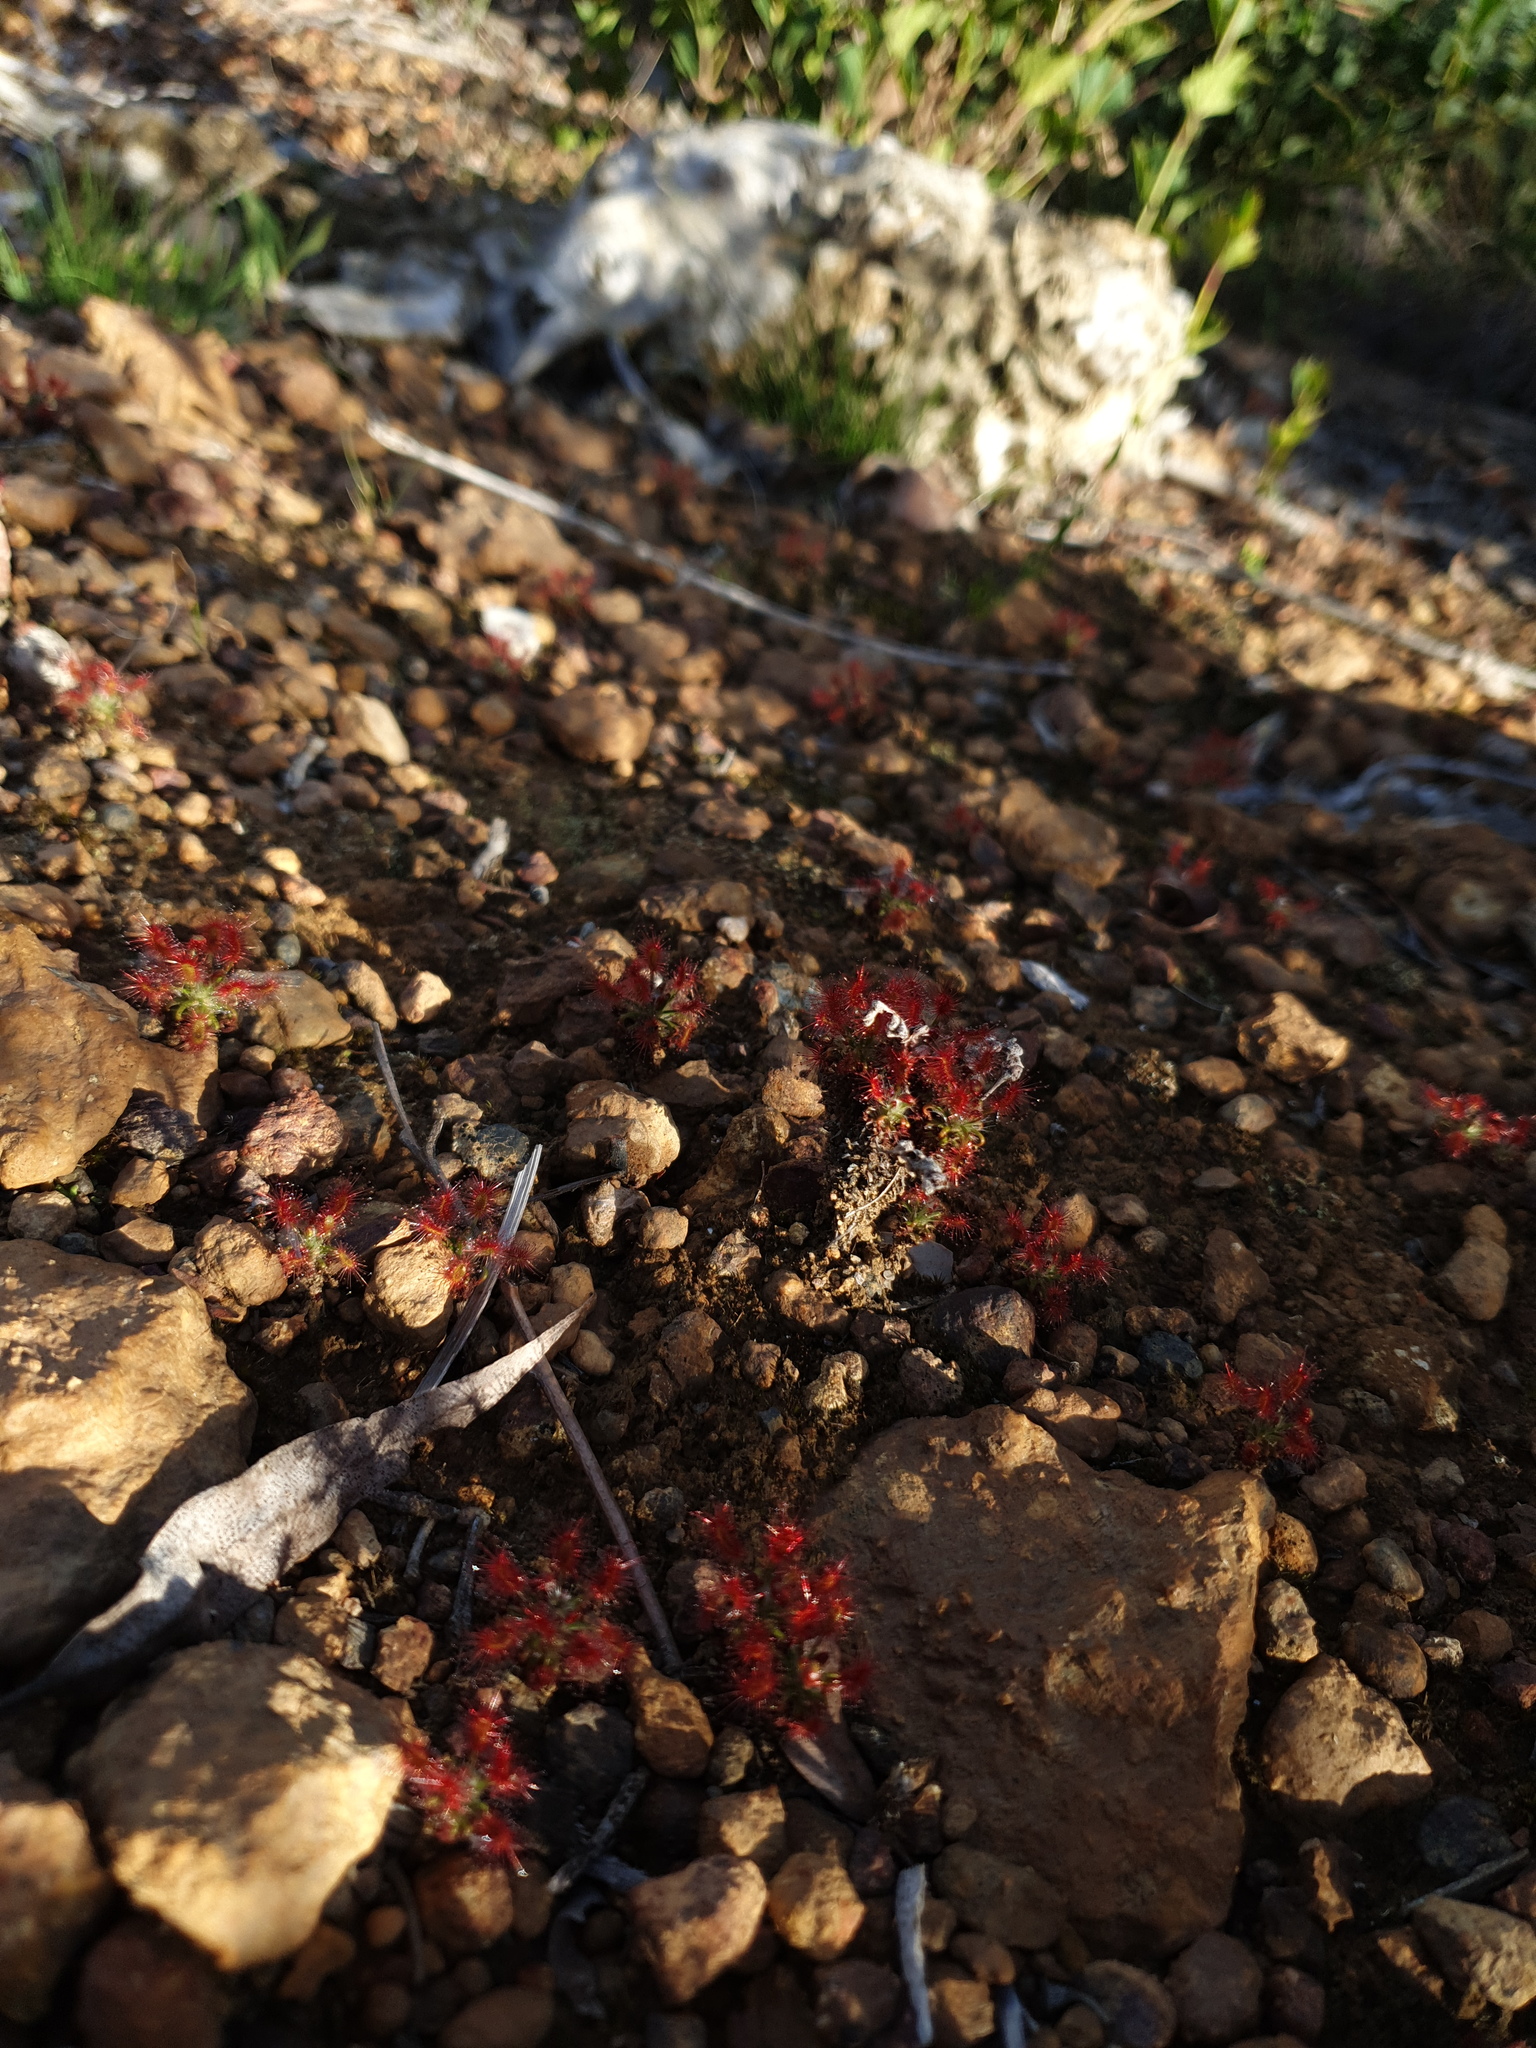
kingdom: Plantae
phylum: Tracheophyta
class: Magnoliopsida
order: Caryophyllales
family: Droseraceae
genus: Drosera
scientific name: Drosera lasiantha
